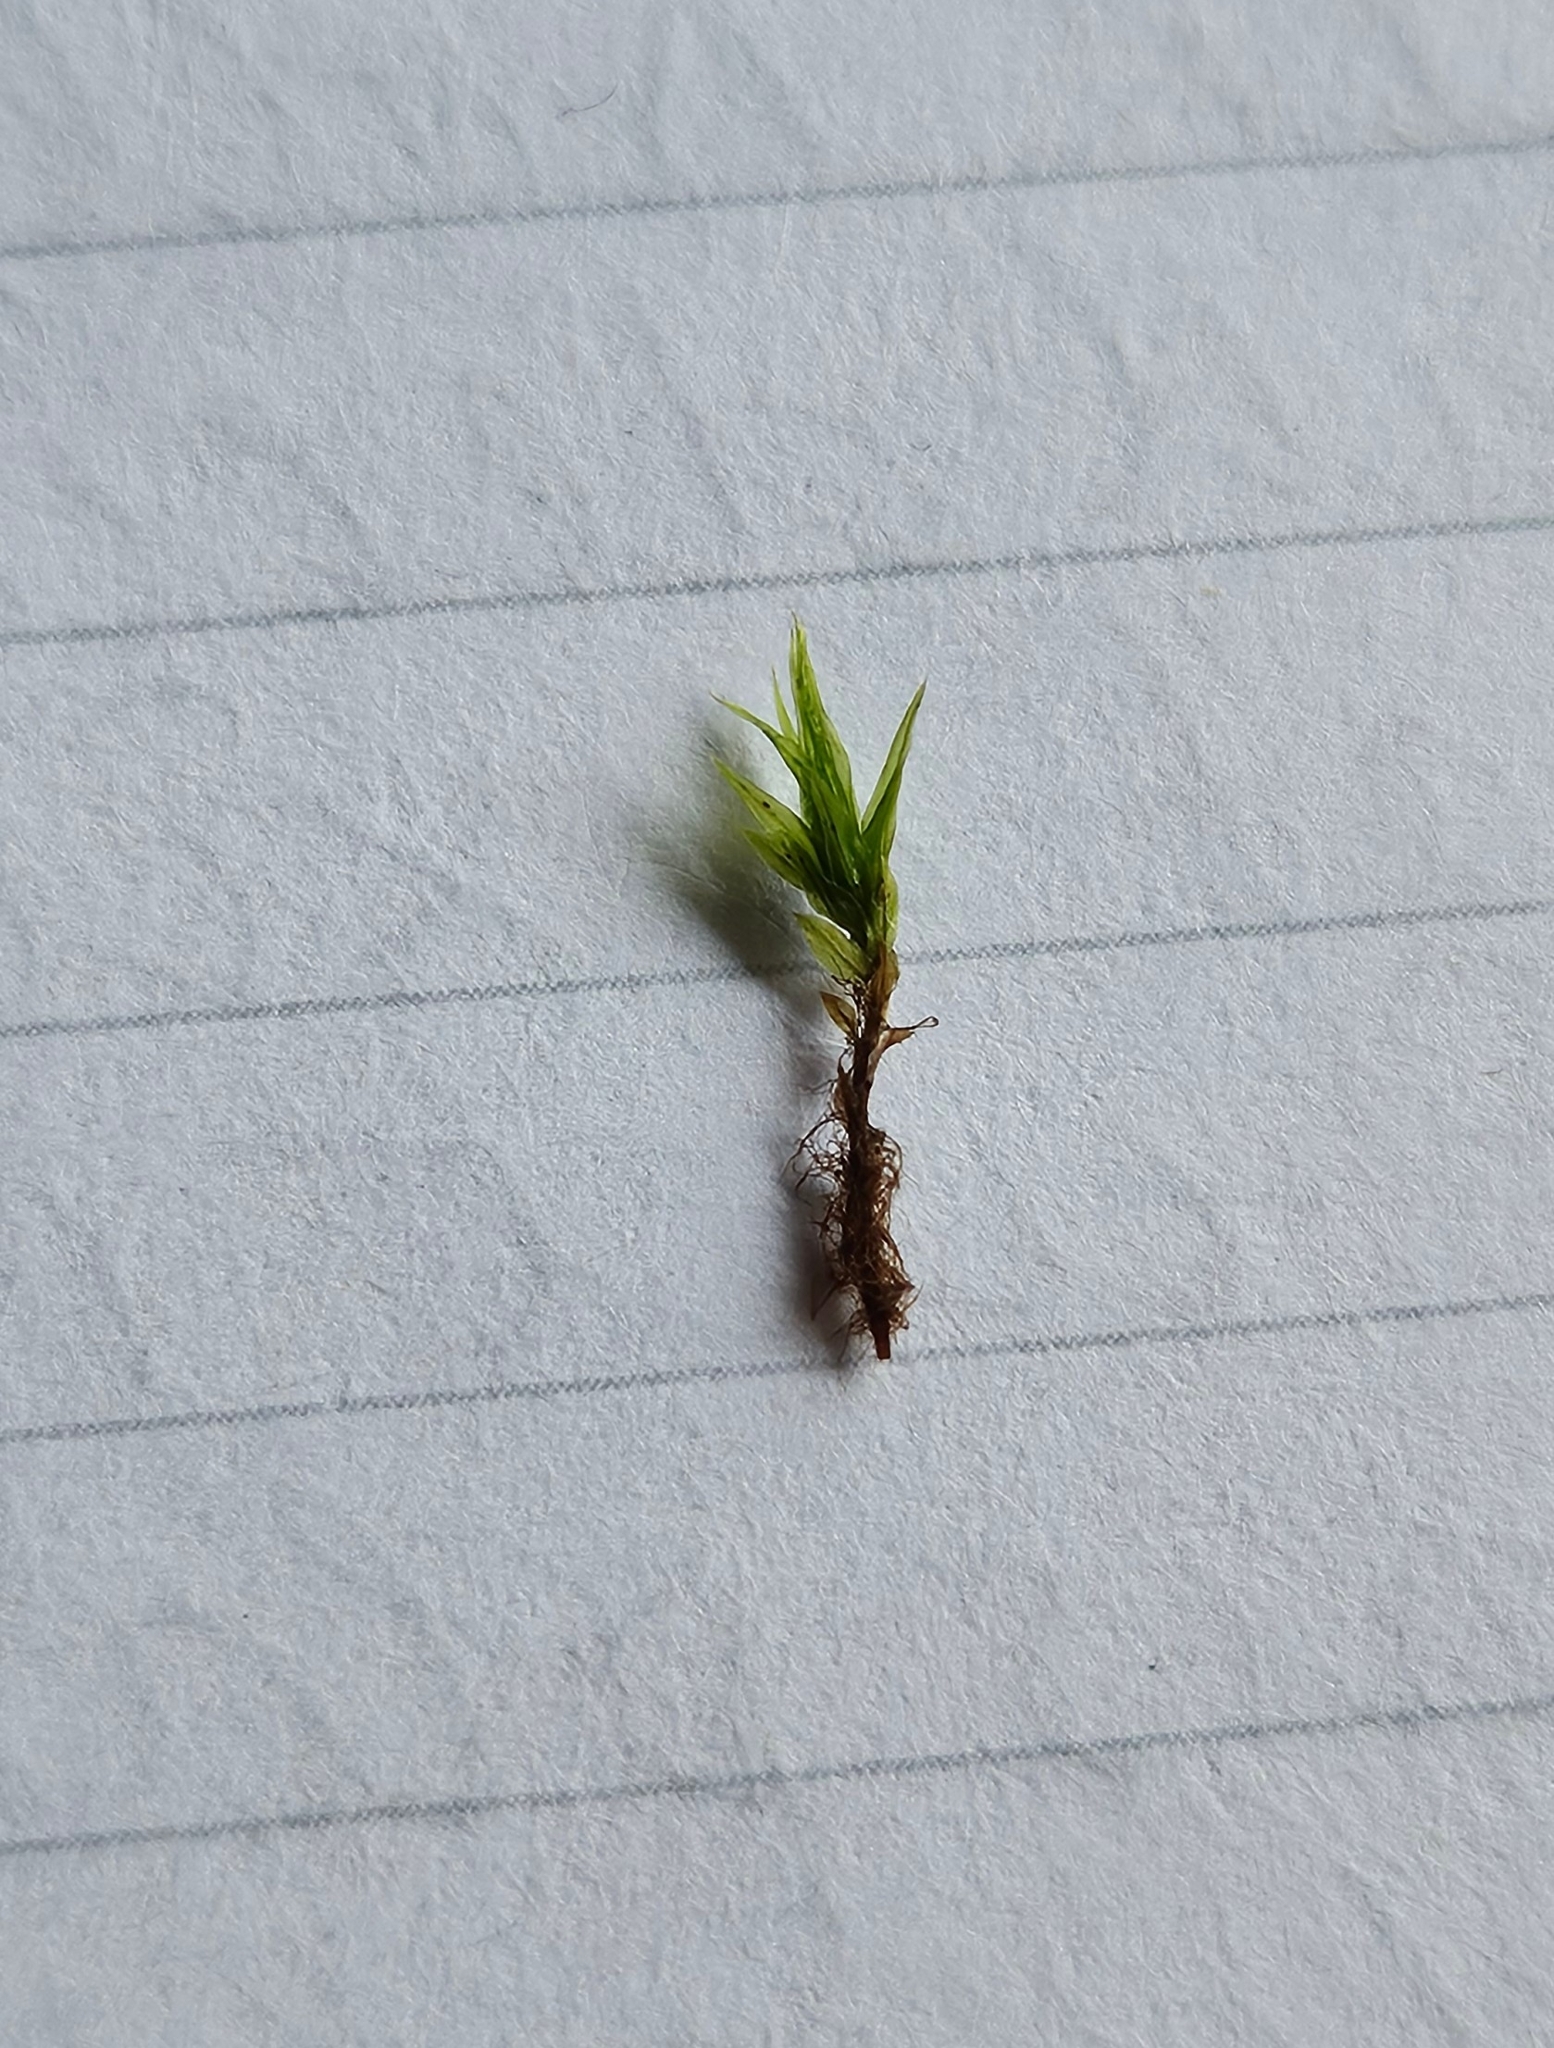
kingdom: Plantae
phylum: Bryophyta
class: Bryopsida
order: Bryales
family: Mniaceae
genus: Pohlia
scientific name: Pohlia nutans
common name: Nodding thread-moss
